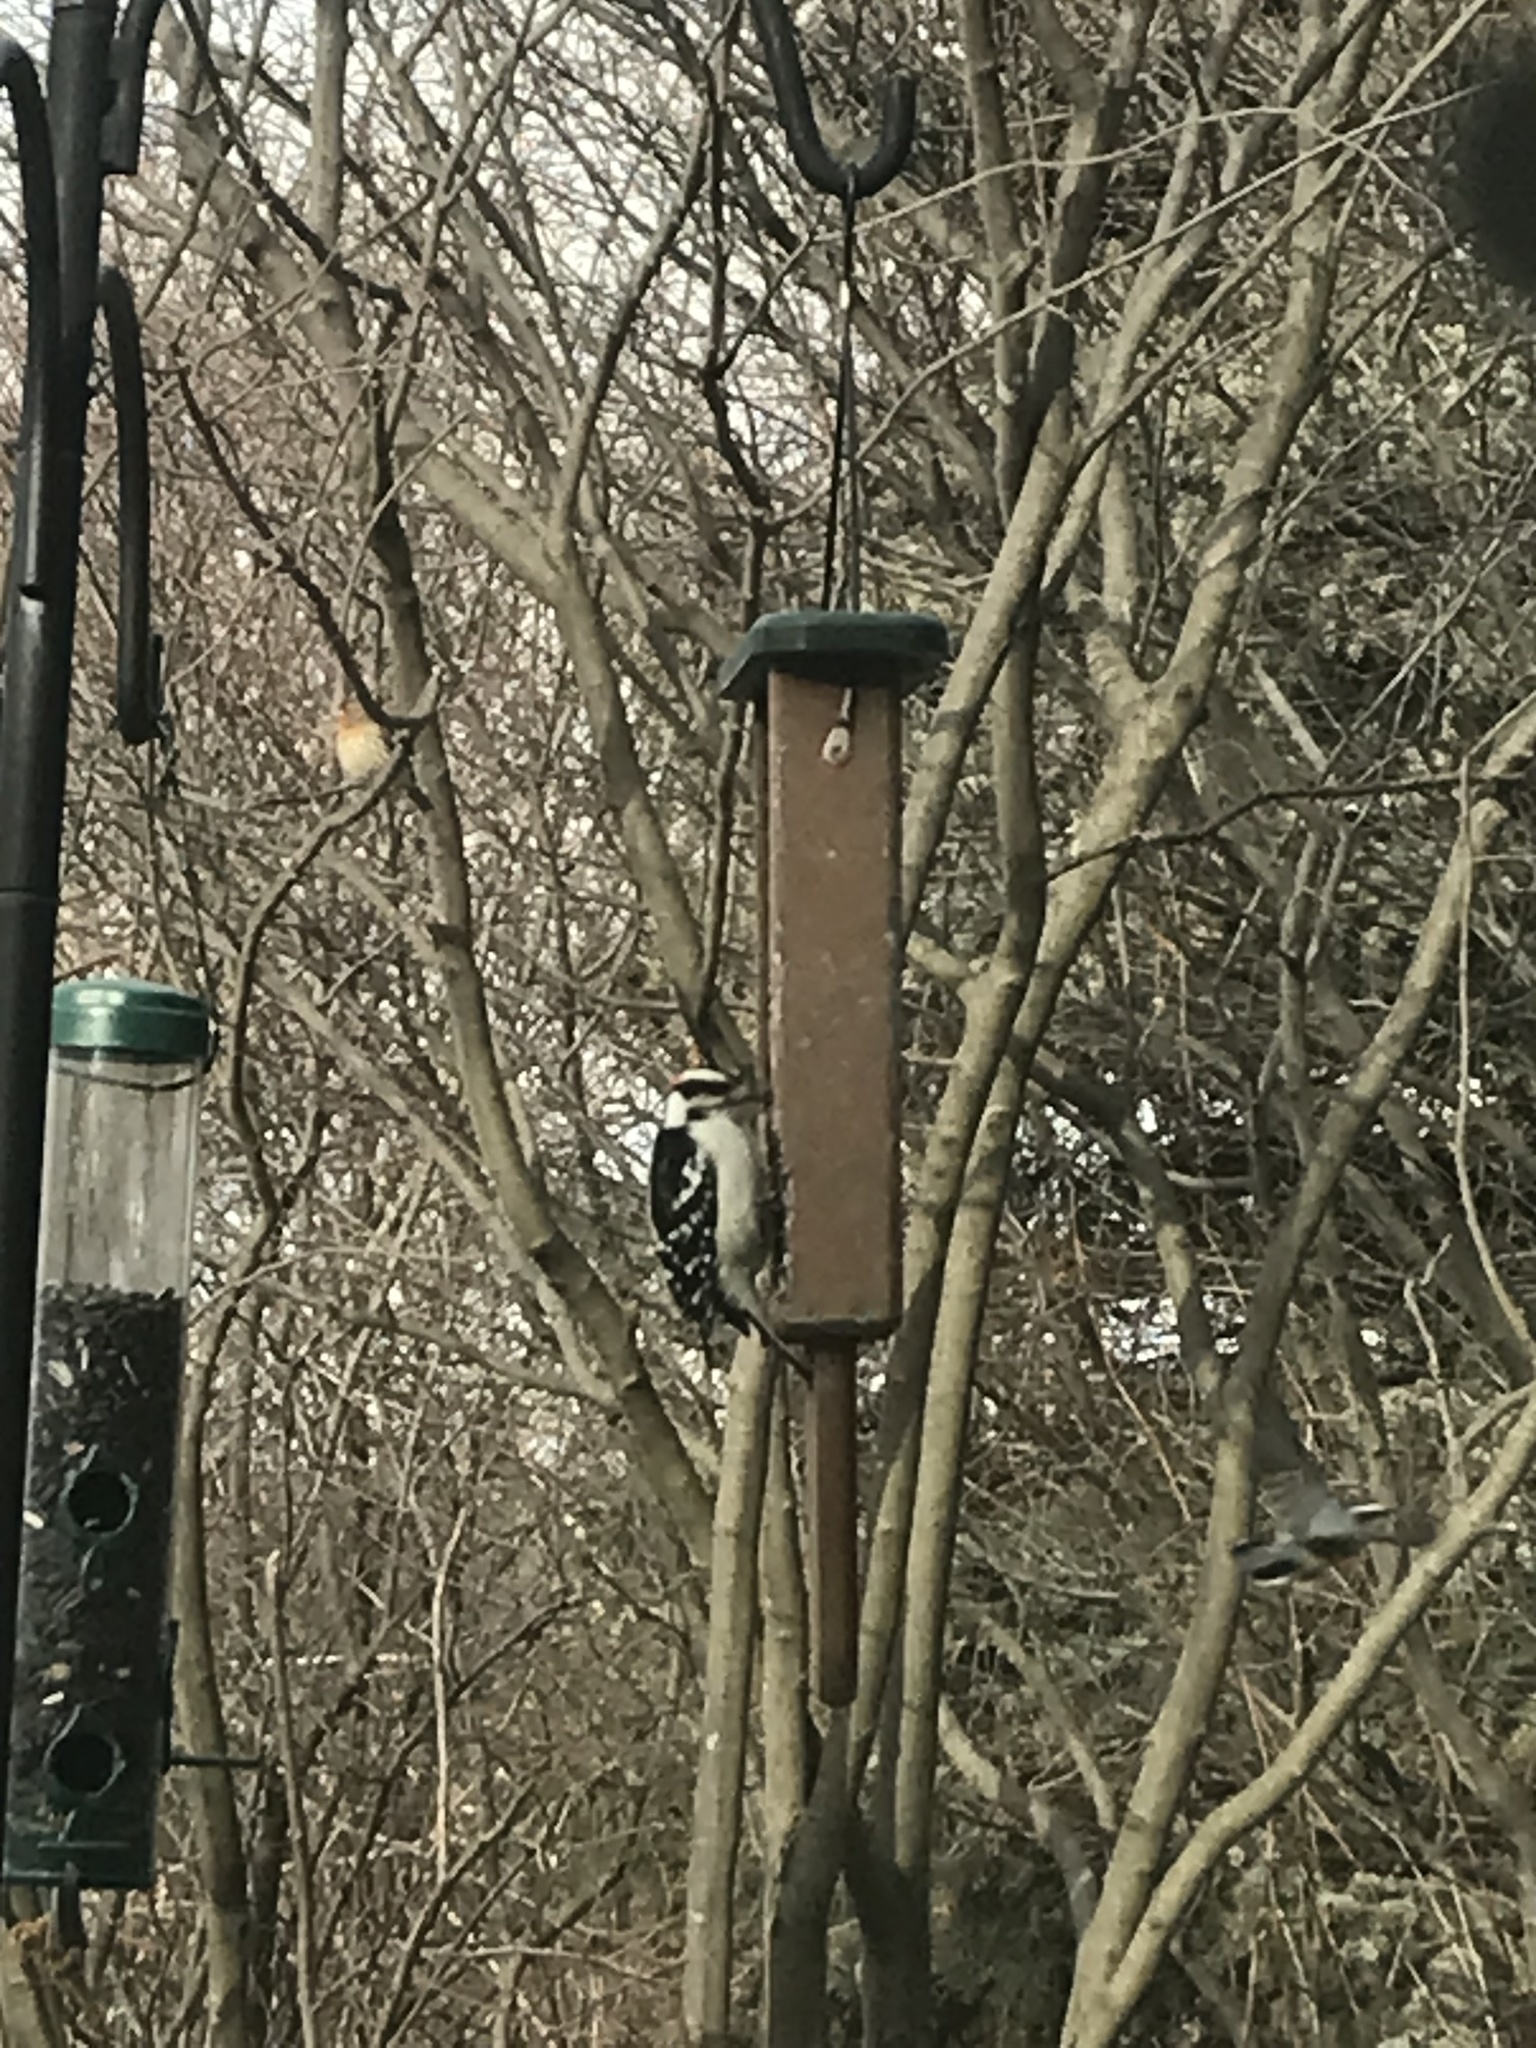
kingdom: Animalia
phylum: Chordata
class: Aves
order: Piciformes
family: Picidae
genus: Dryobates
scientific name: Dryobates pubescens
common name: Downy woodpecker
